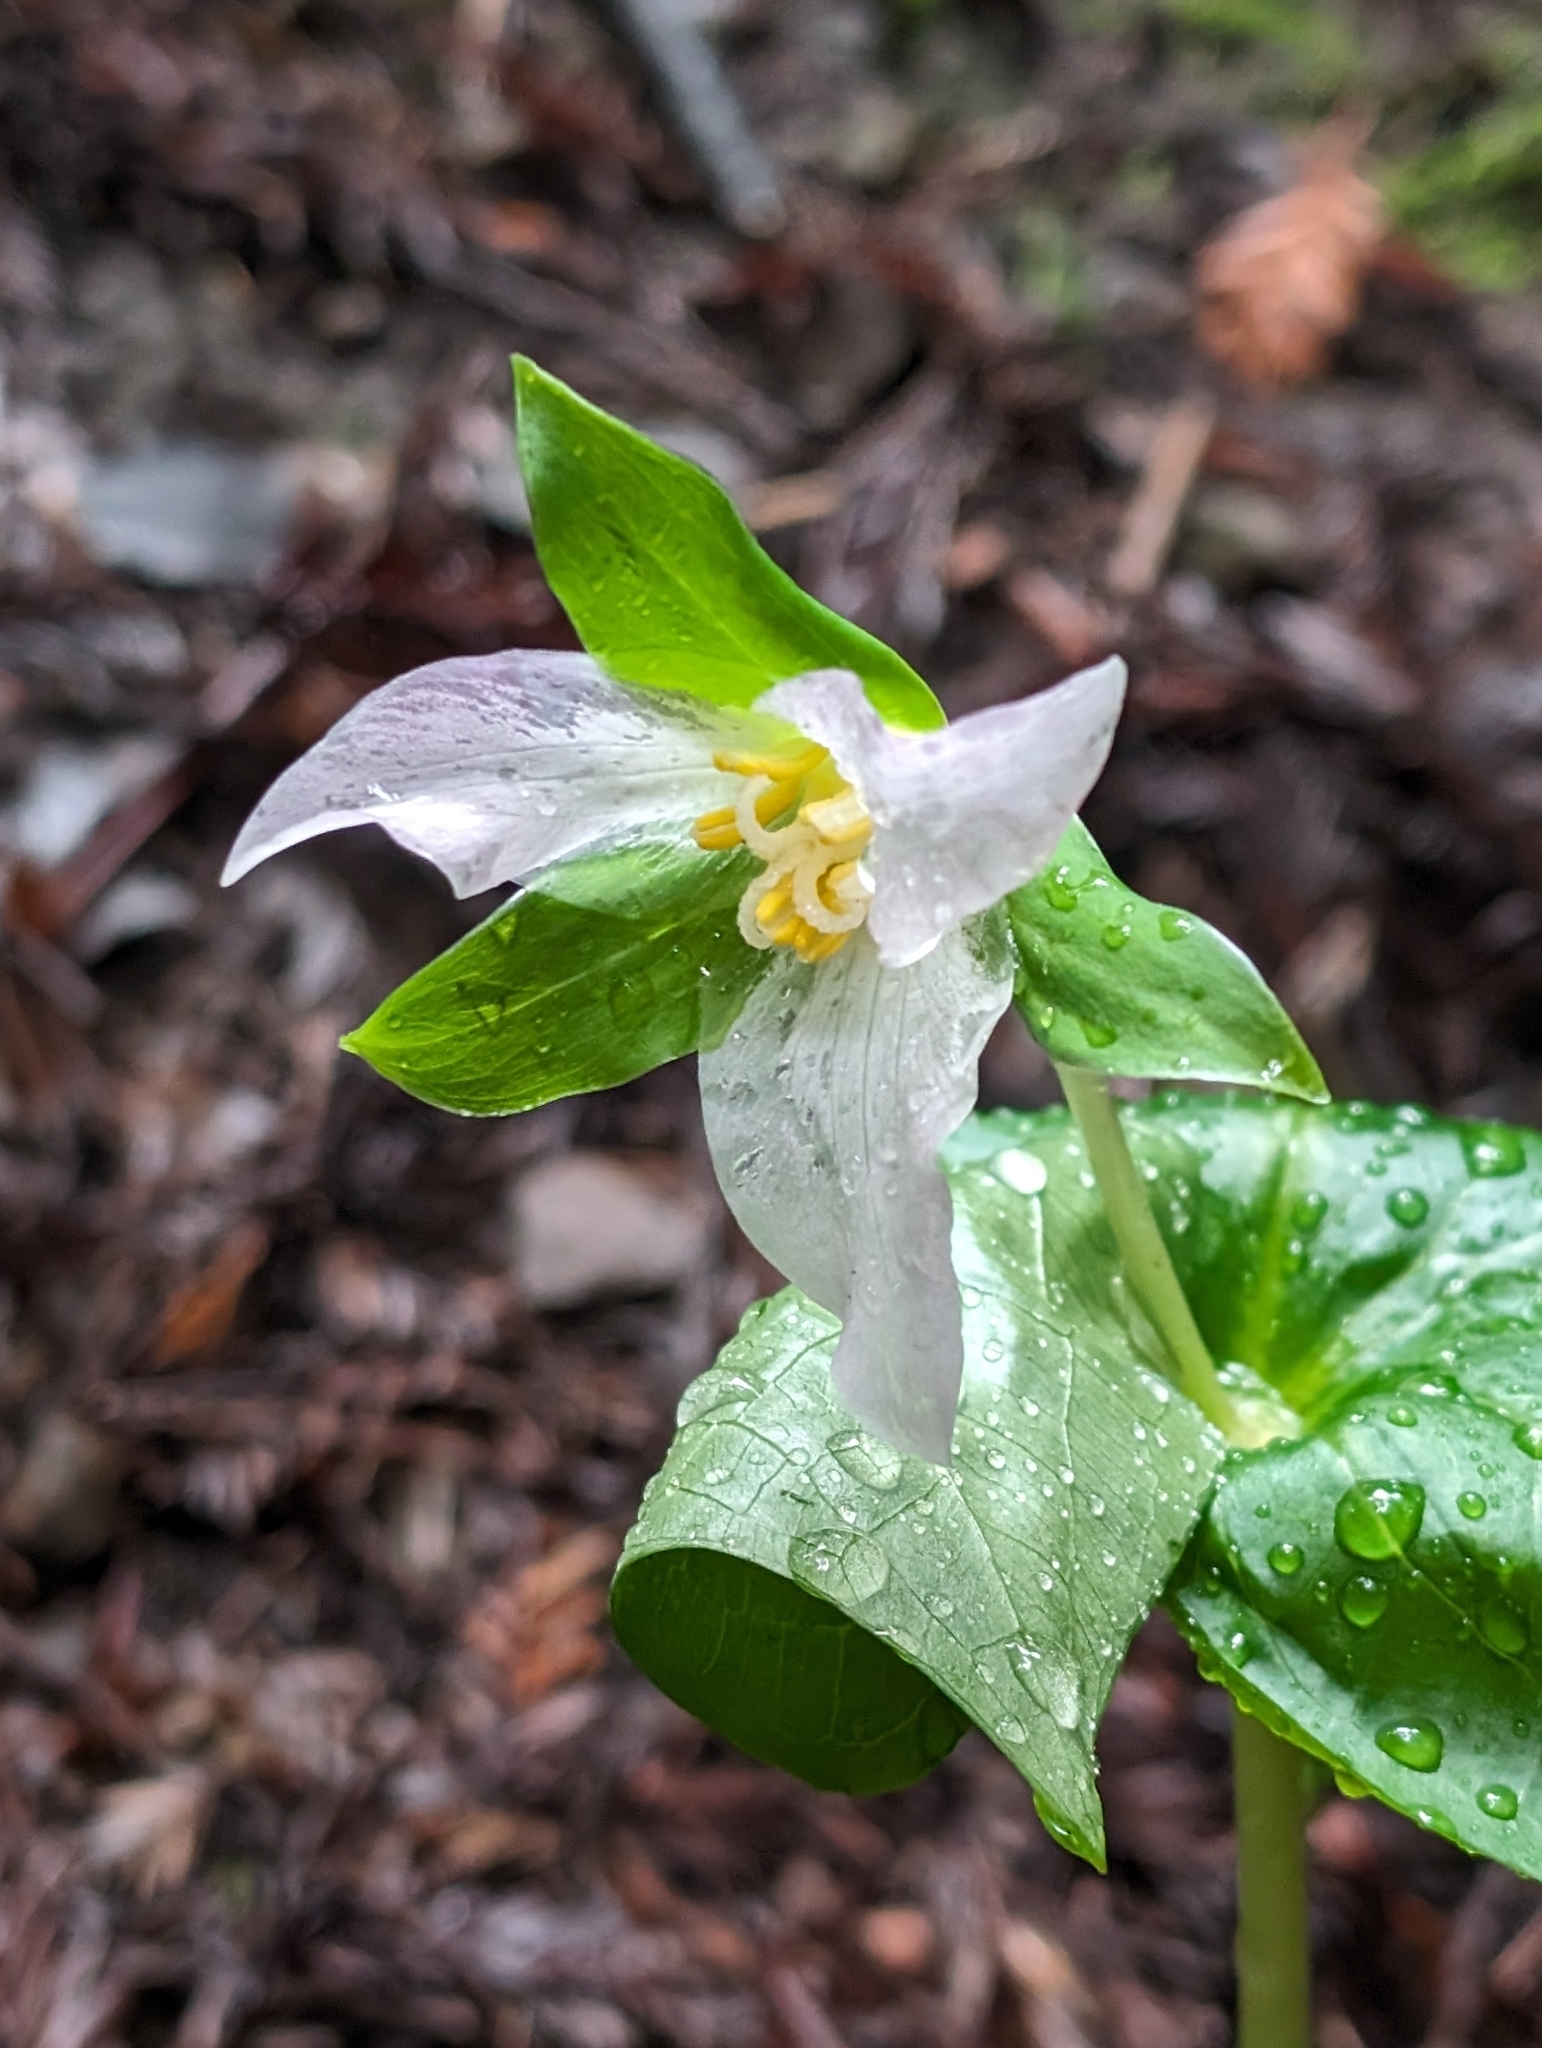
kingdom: Plantae
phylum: Tracheophyta
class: Liliopsida
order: Liliales
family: Melanthiaceae
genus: Trillium
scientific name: Trillium ovatum
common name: Pacific trillium
